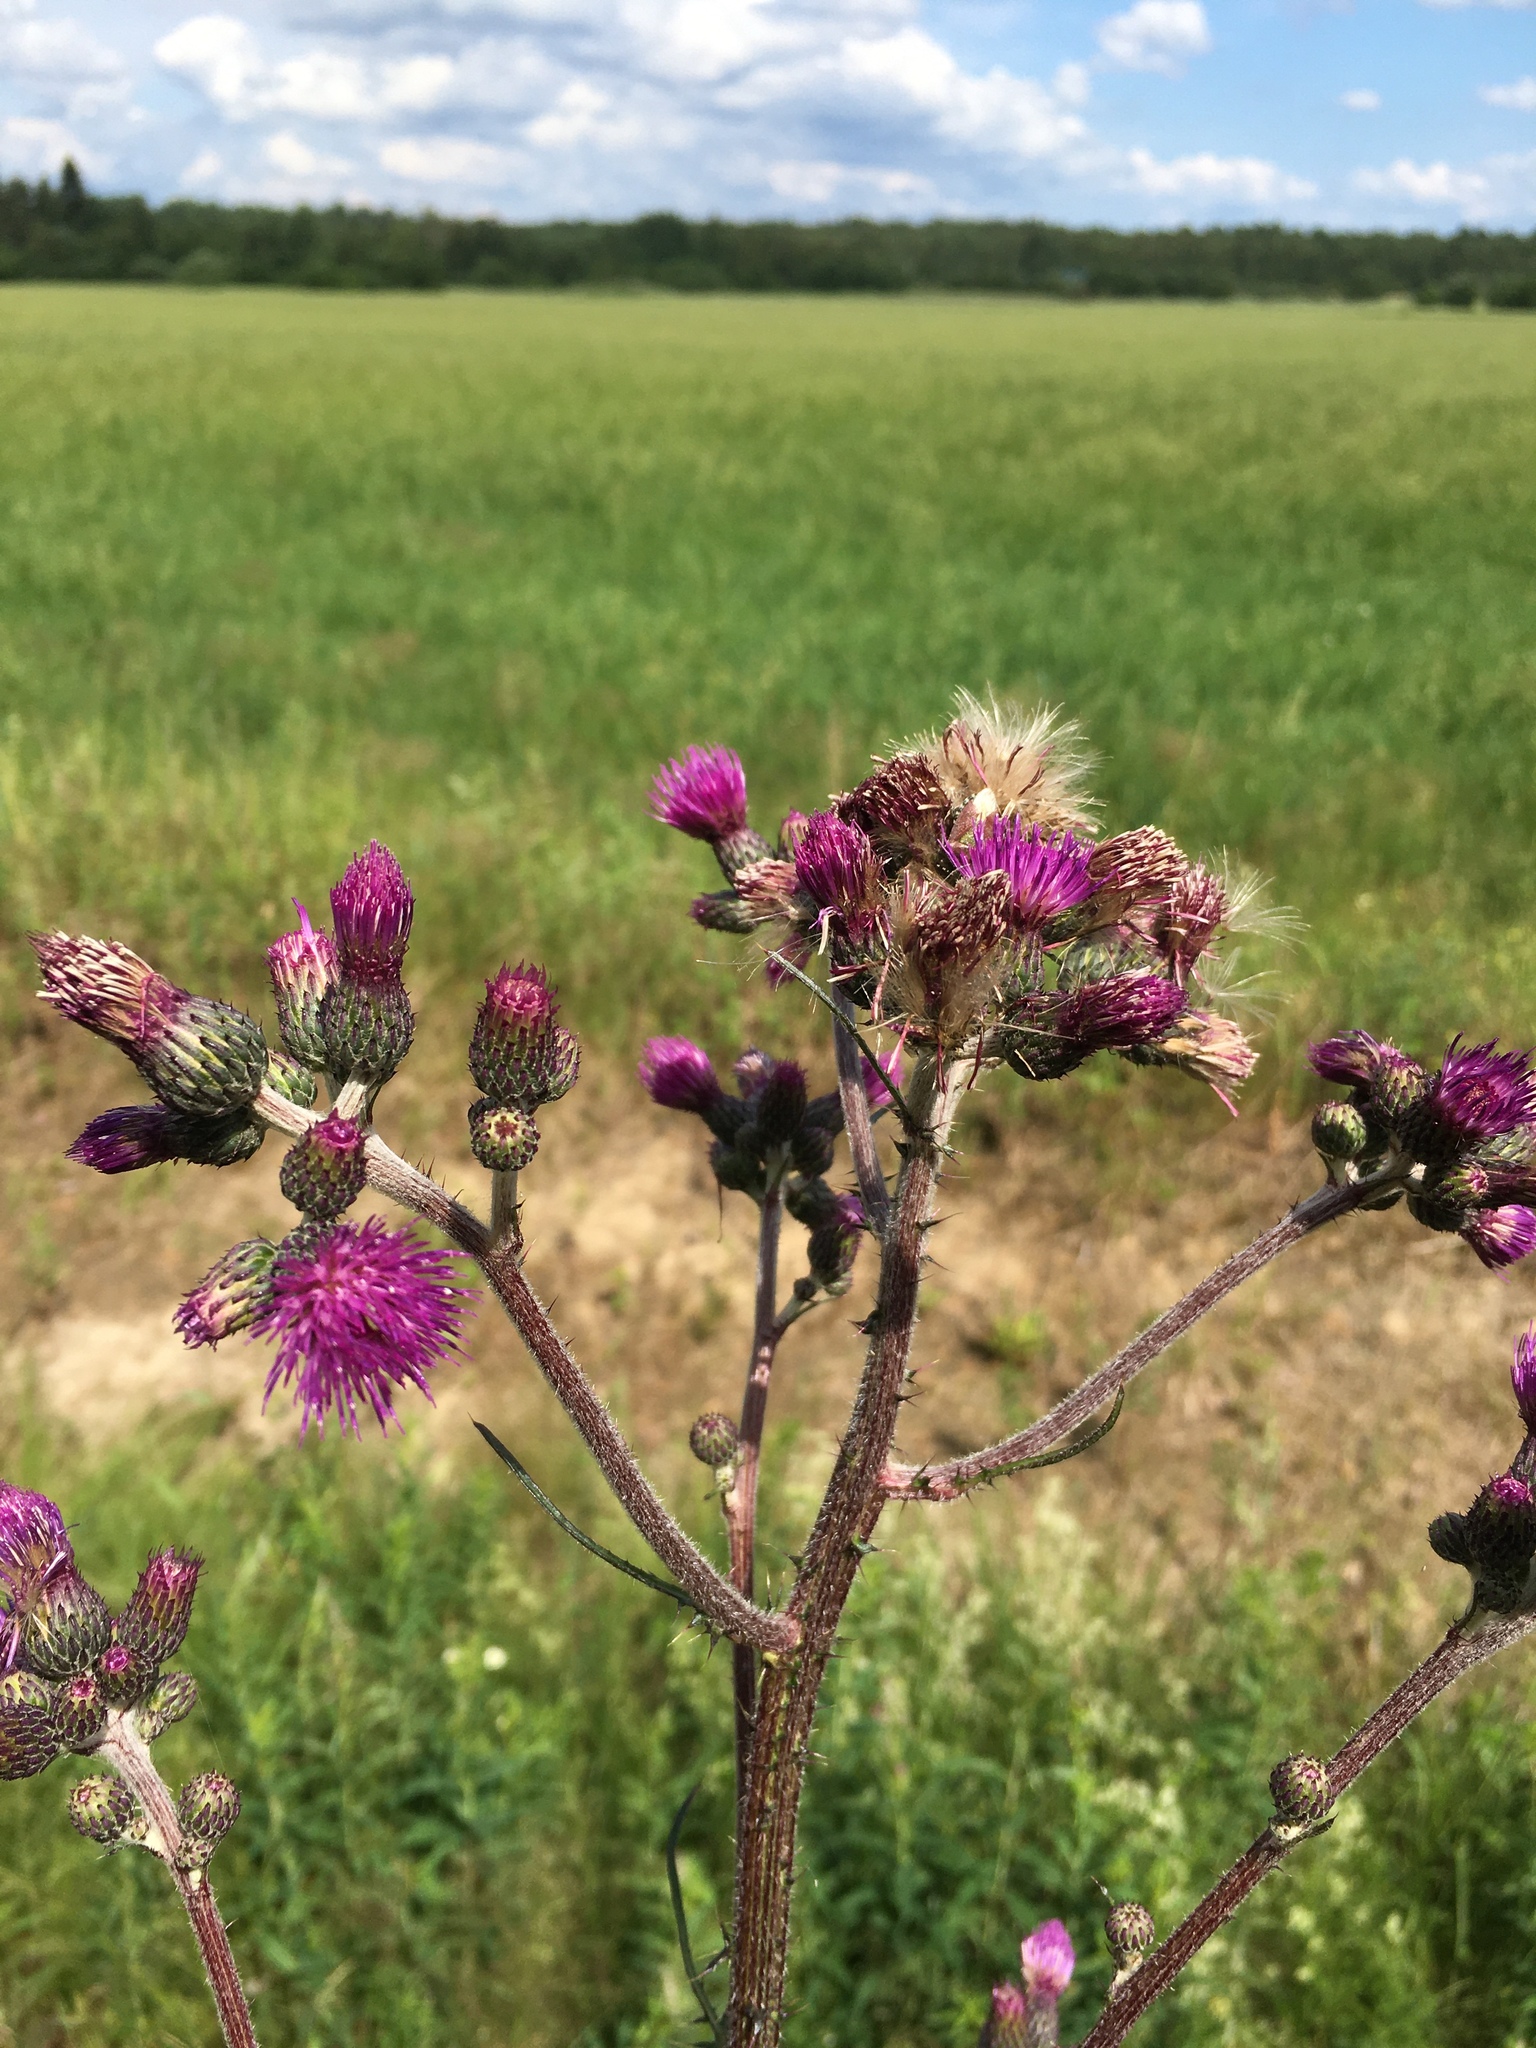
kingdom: Plantae
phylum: Tracheophyta
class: Magnoliopsida
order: Asterales
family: Asteraceae
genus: Cirsium
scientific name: Cirsium palustre
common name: Marsh thistle
